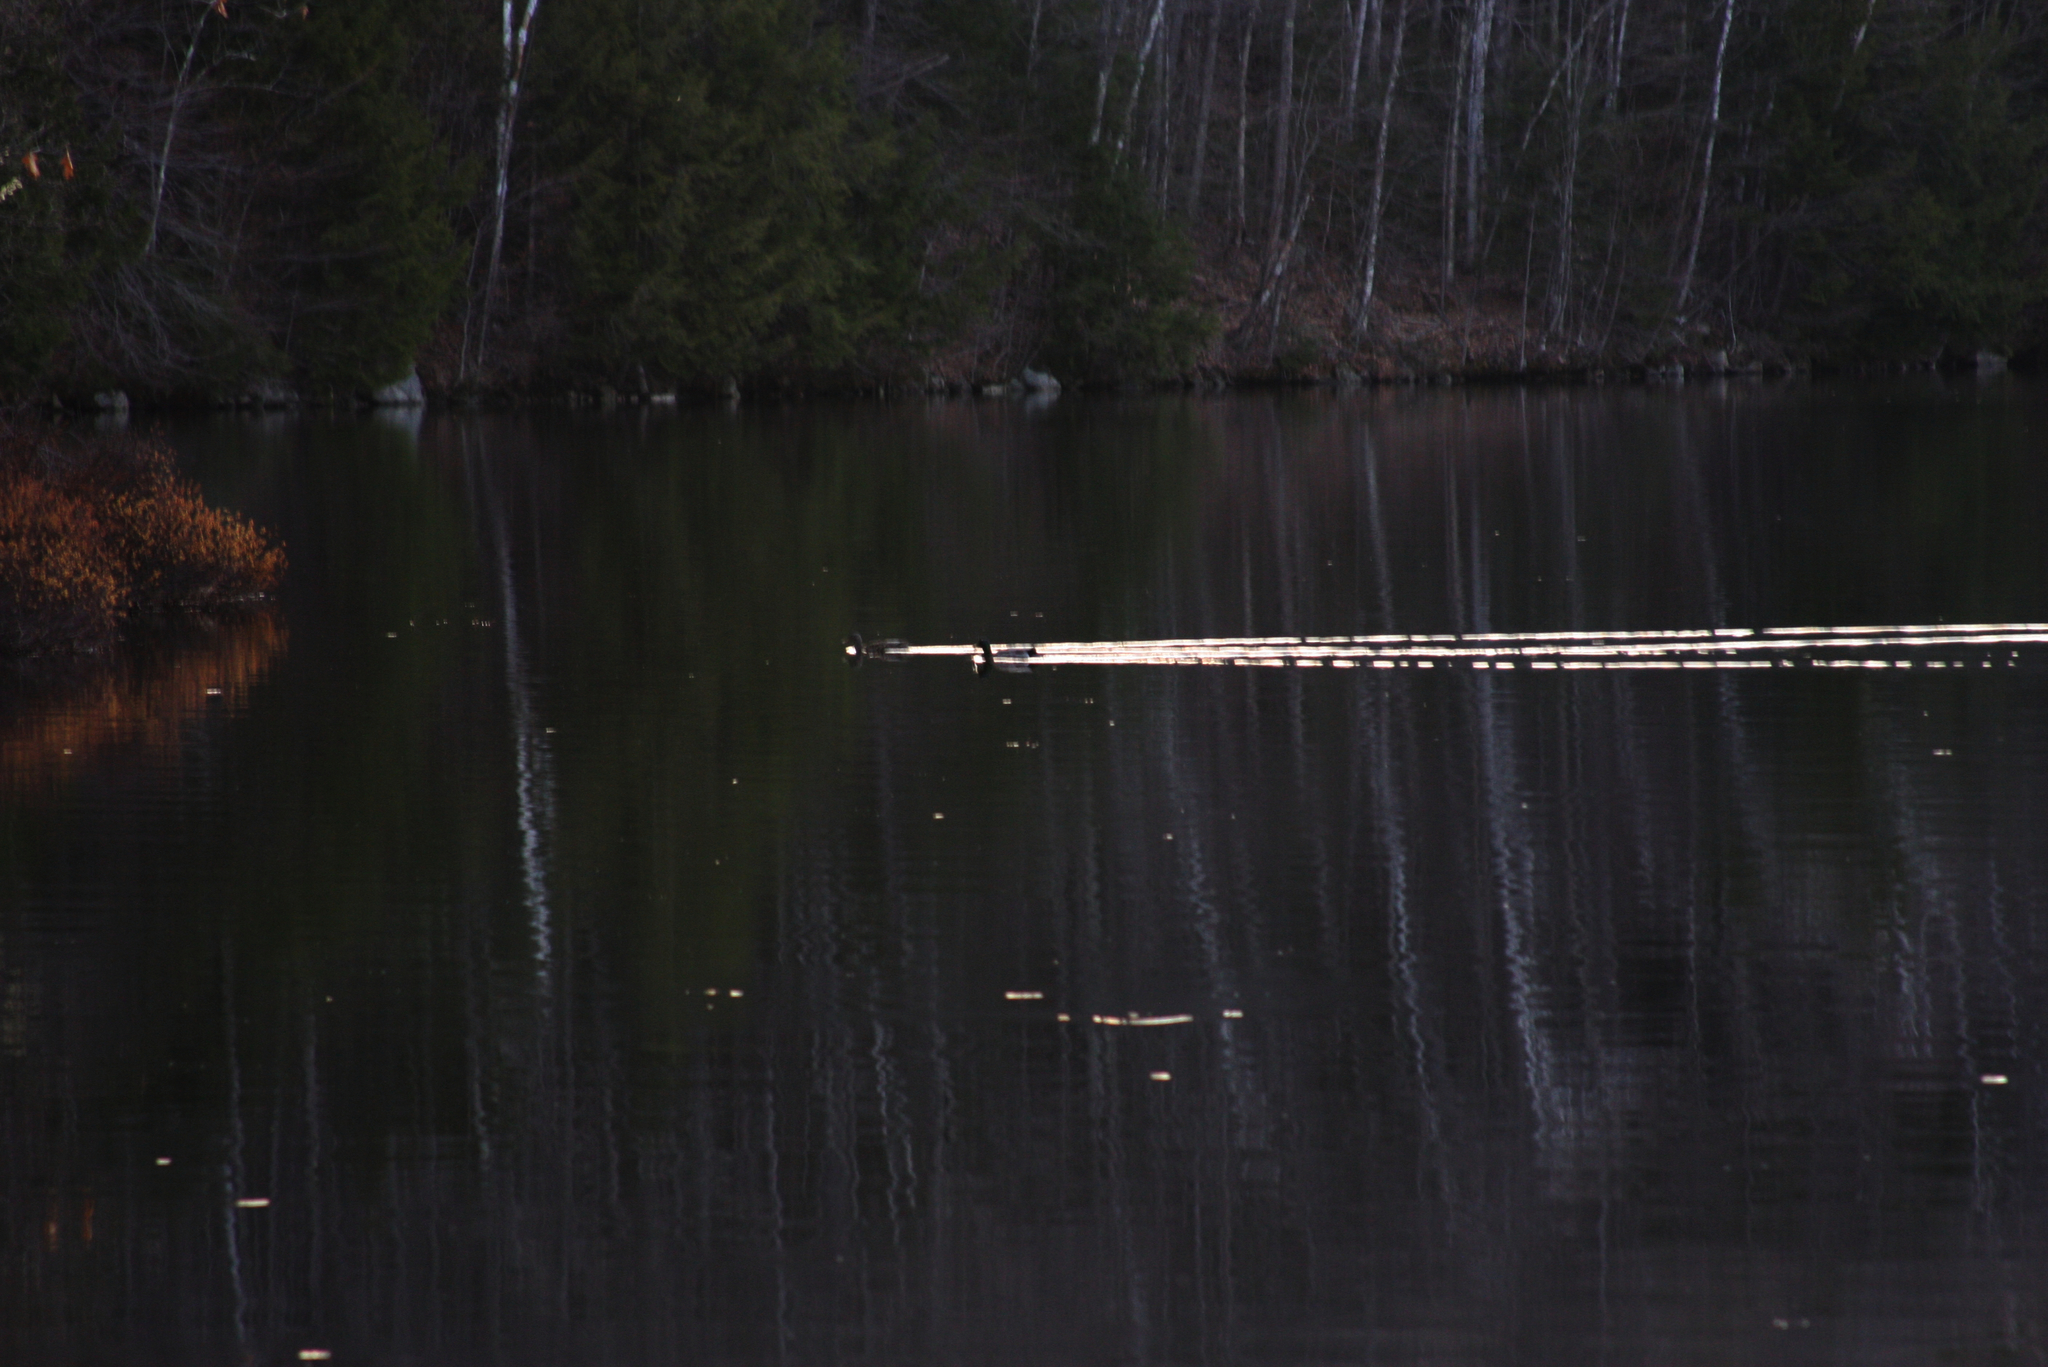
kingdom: Animalia
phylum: Chordata
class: Aves
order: Anseriformes
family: Anatidae
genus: Anas
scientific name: Anas platyrhynchos
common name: Mallard
